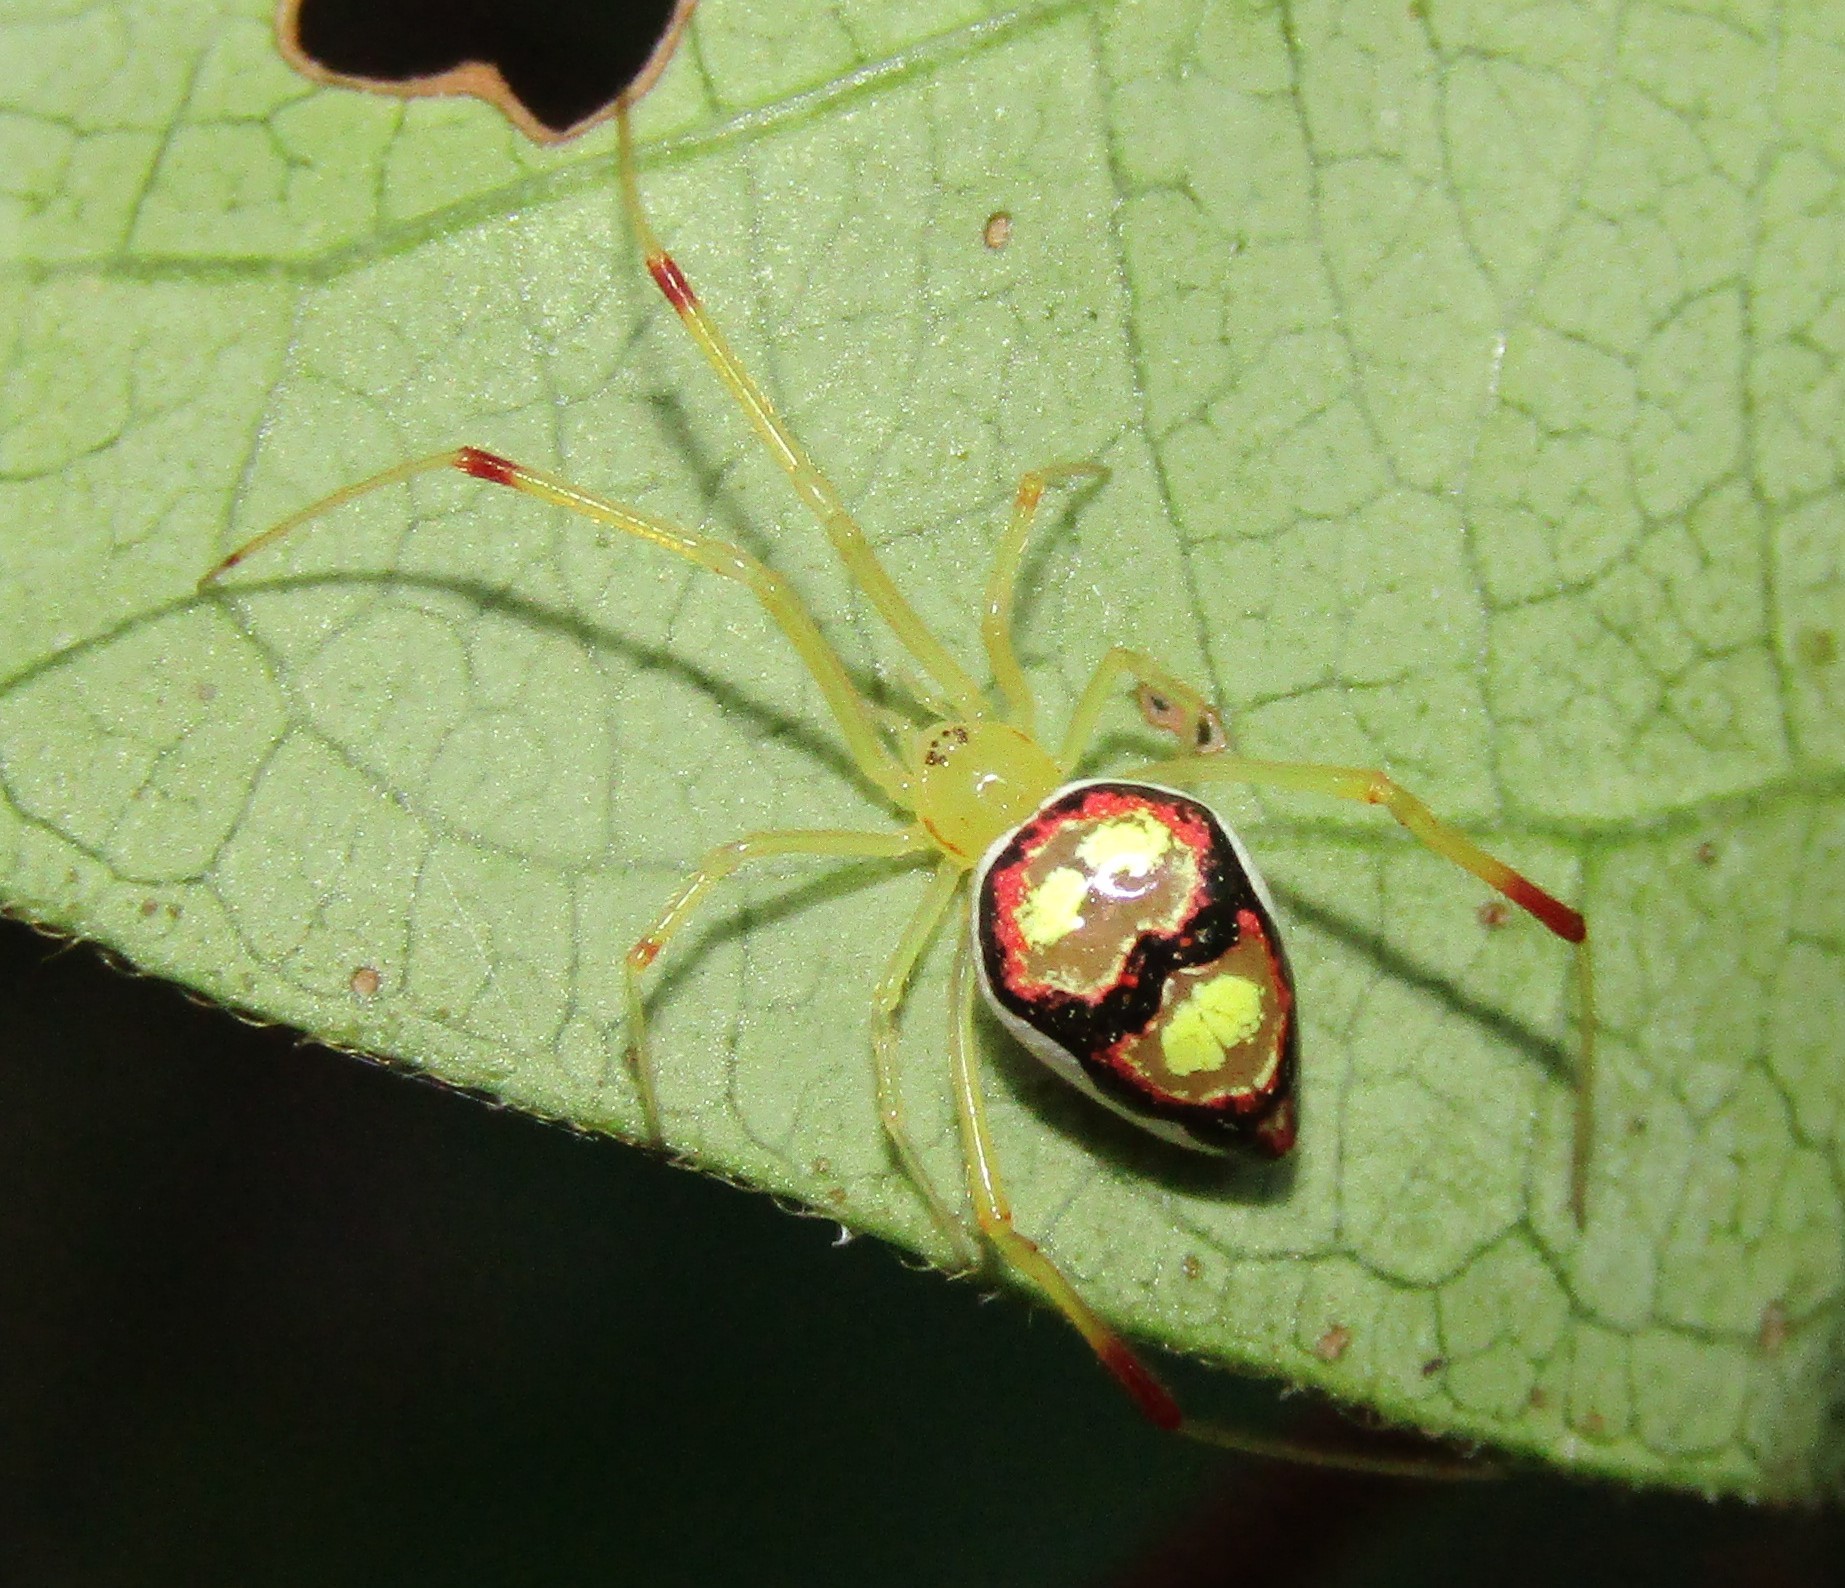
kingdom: Animalia
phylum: Arthropoda
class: Arachnida
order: Araneae
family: Theridiidae
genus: Spintharus
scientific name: Spintharus flavidus
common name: Cobweb spiders
